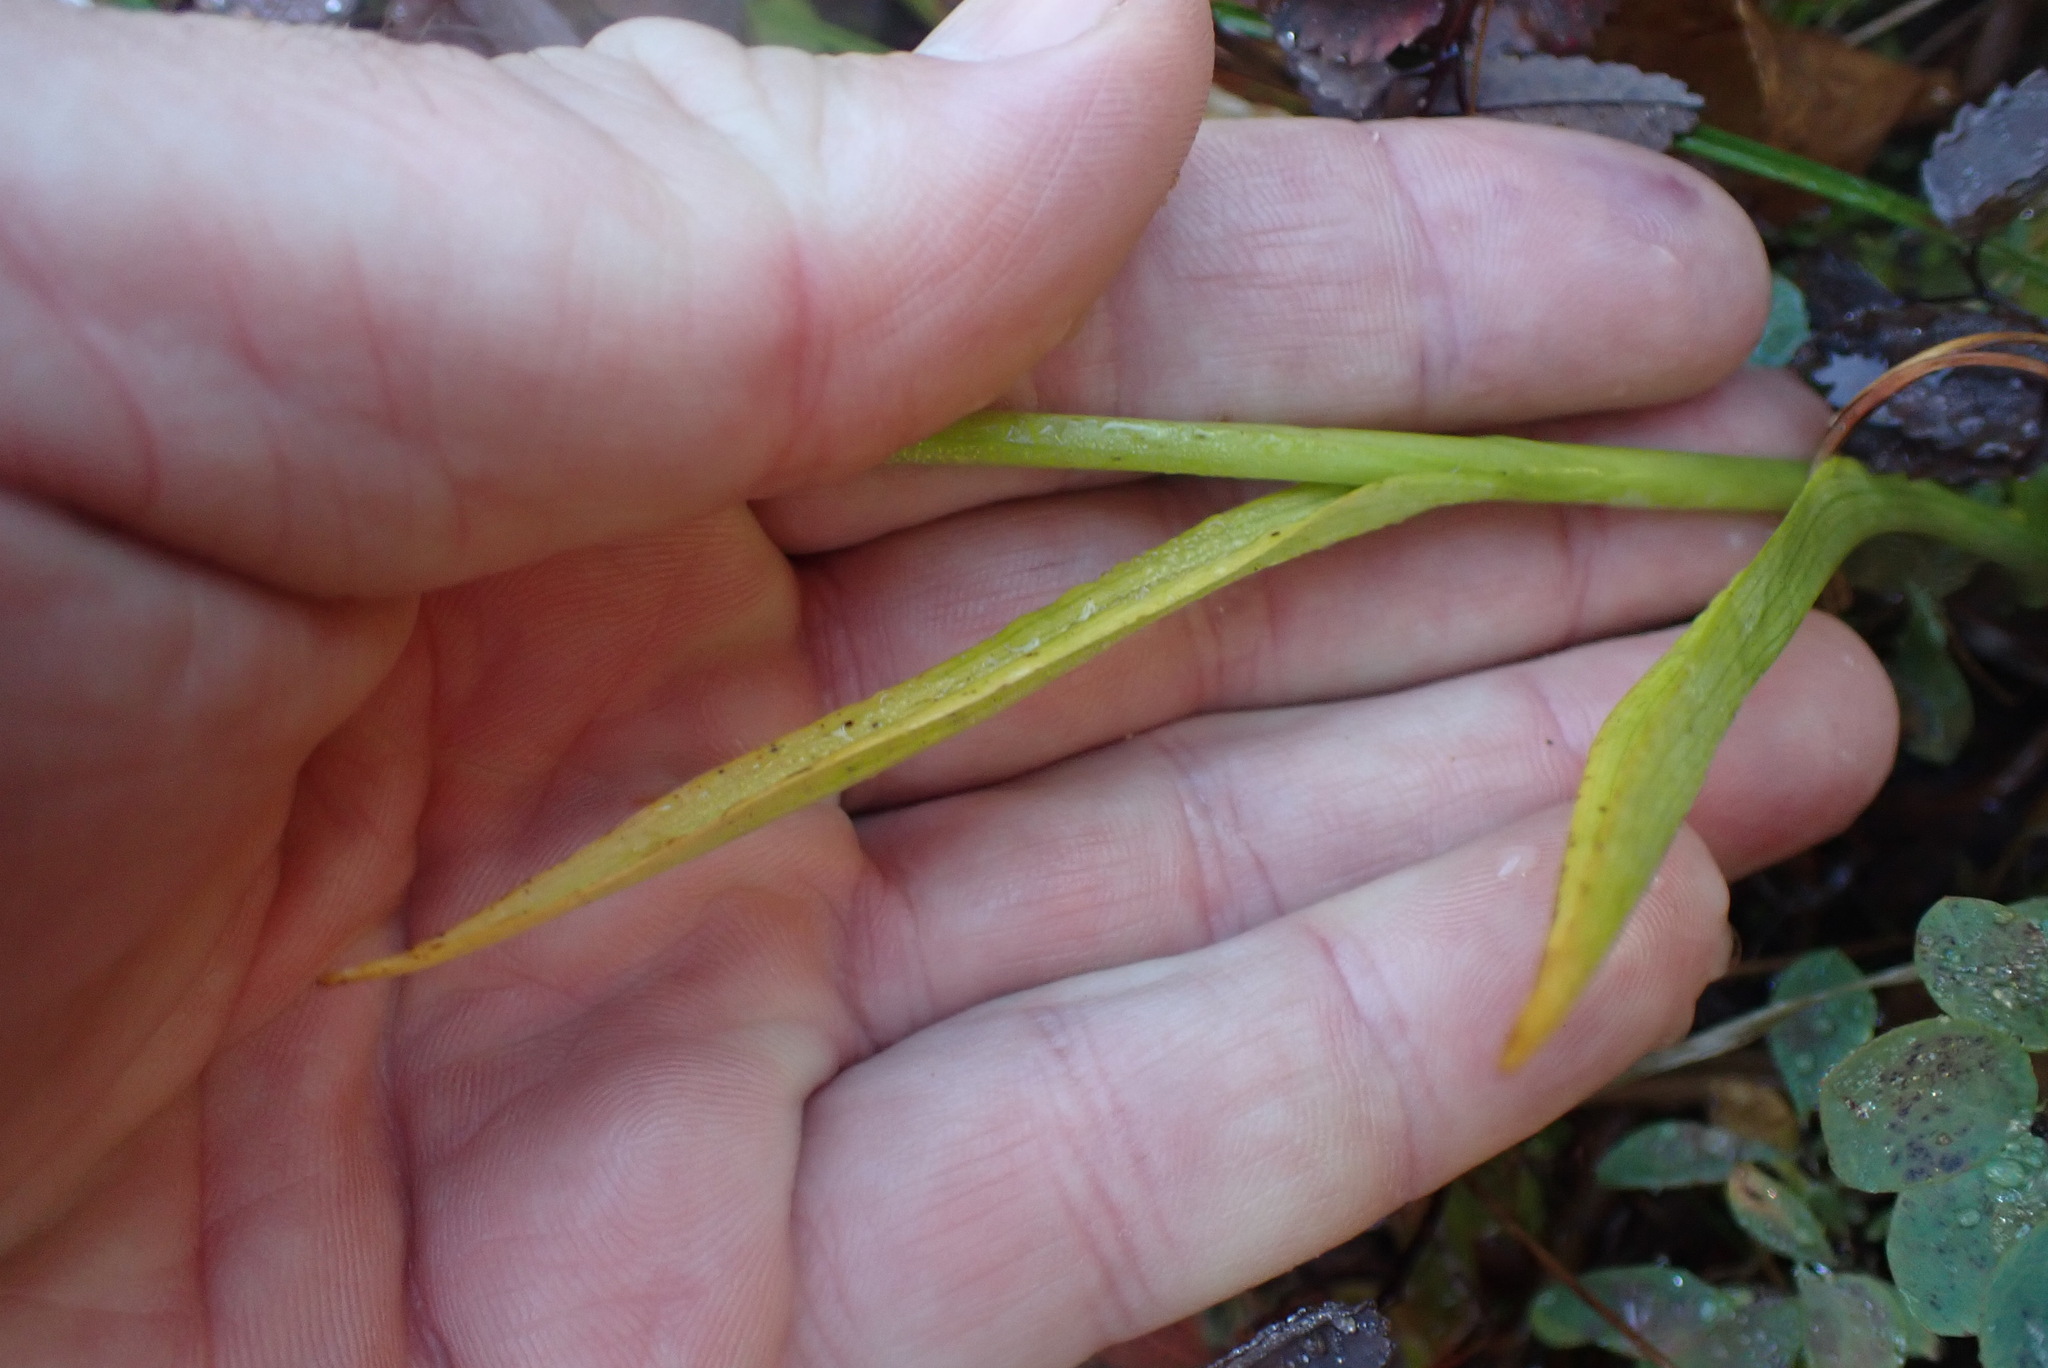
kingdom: Plantae
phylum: Tracheophyta
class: Liliopsida
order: Asparagales
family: Orchidaceae
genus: Platanthera
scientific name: Platanthera dilatata
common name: Bog candles
